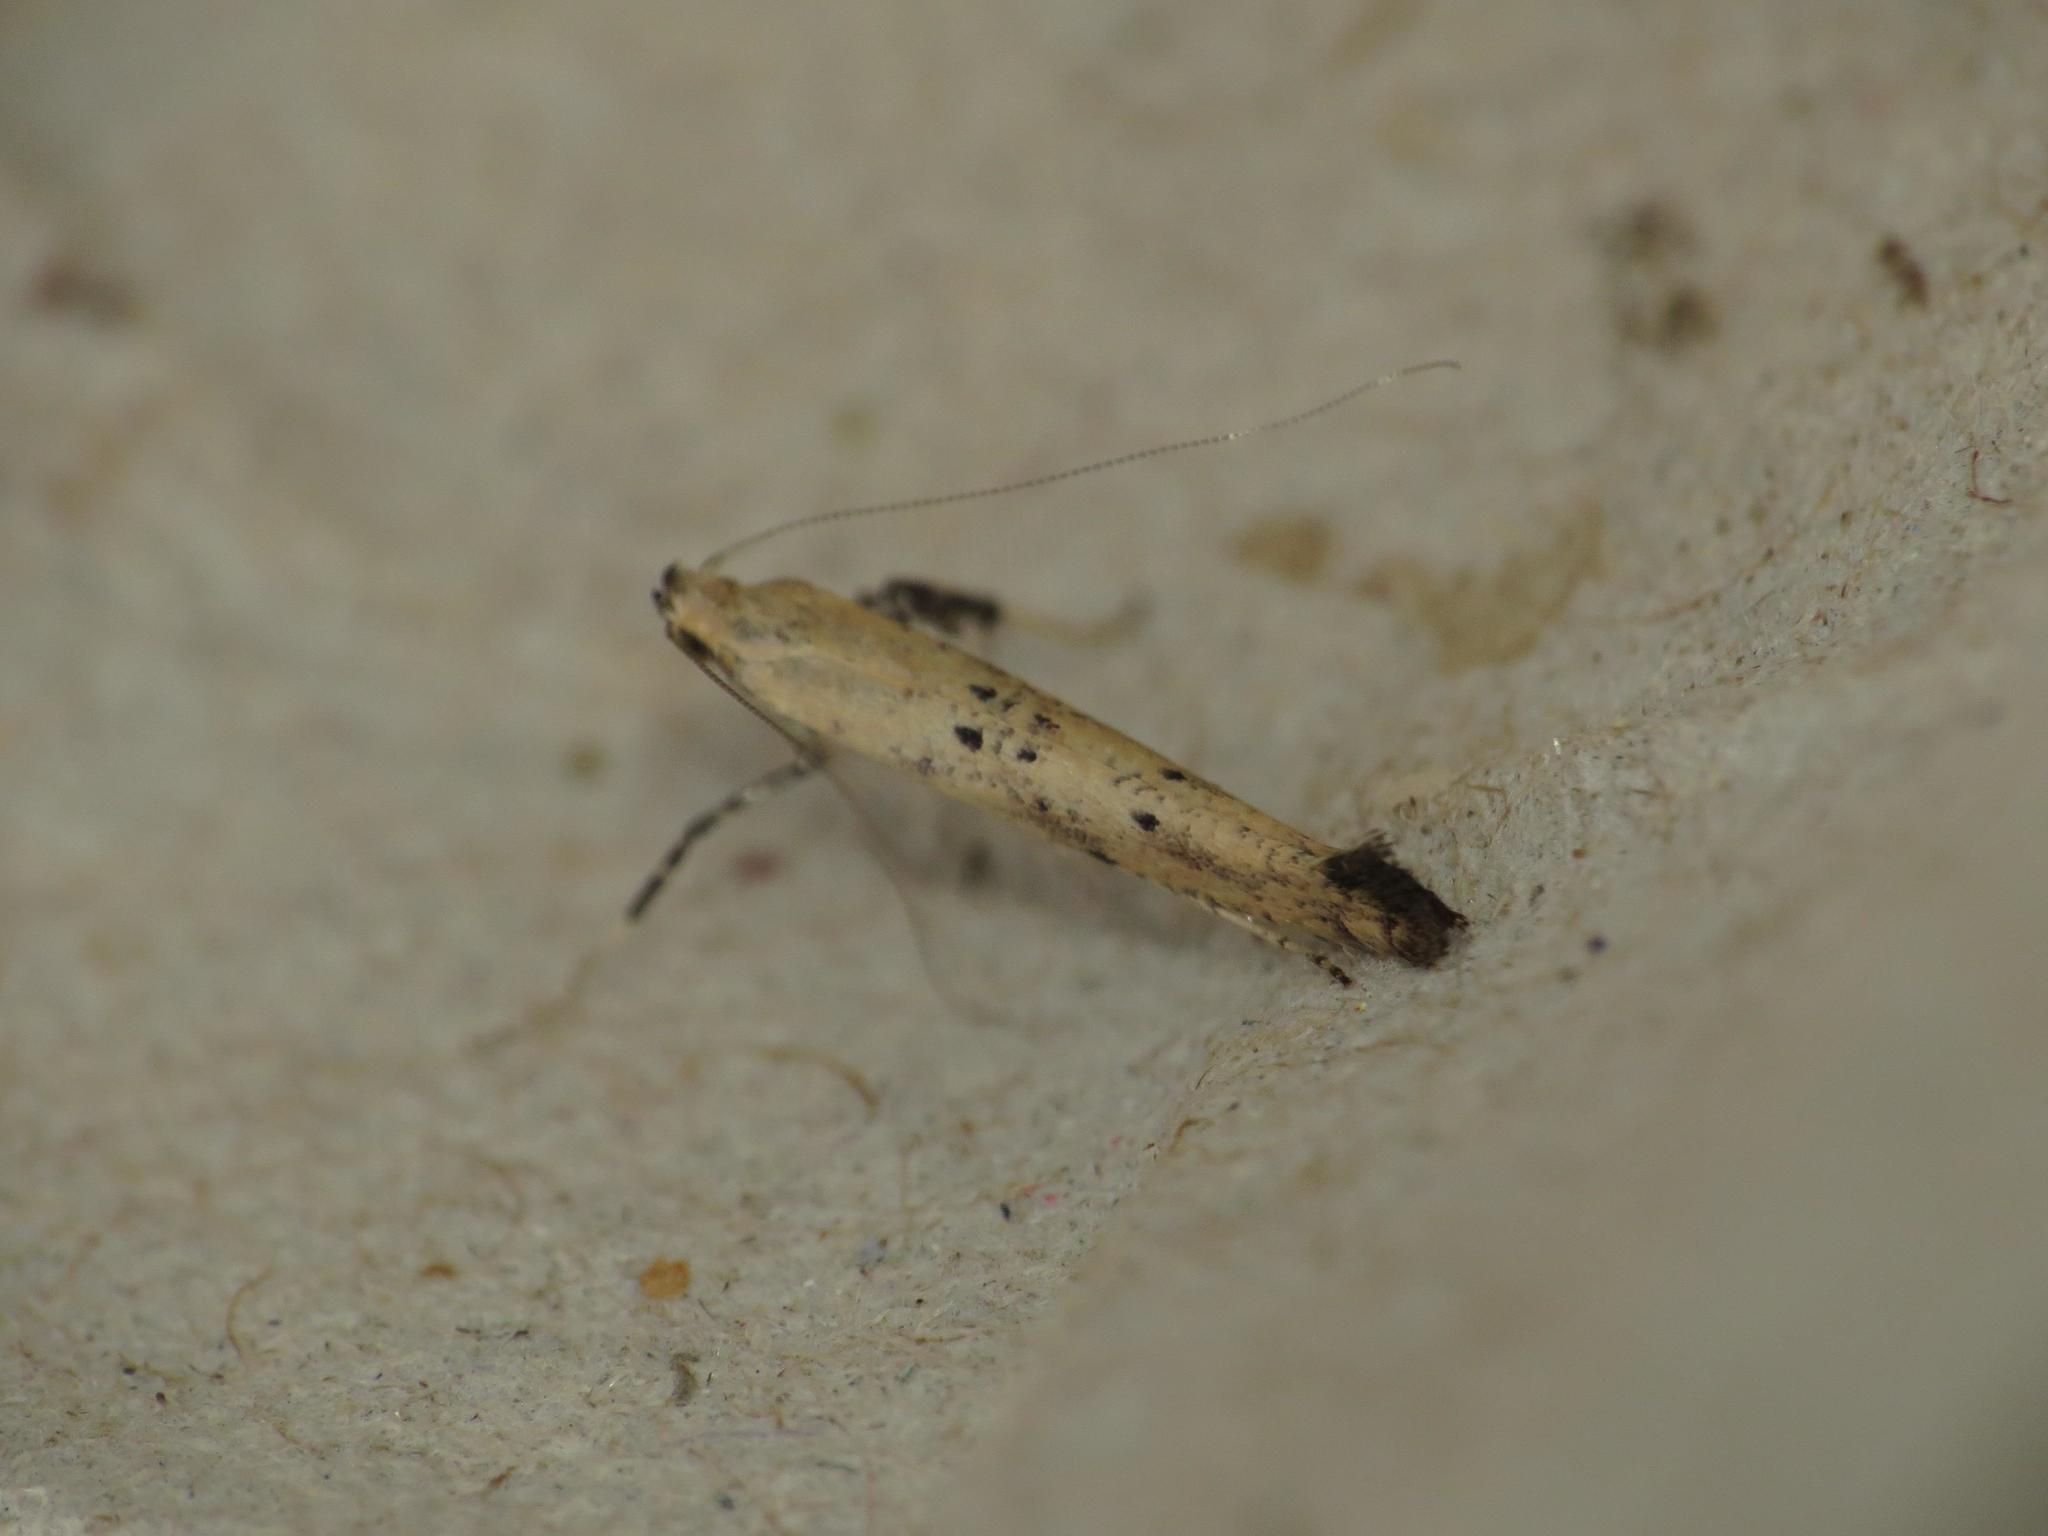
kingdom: Animalia
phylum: Arthropoda
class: Insecta
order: Lepidoptera
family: Gracillariidae
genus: Caloptilia
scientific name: Caloptilia populetorum
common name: Clouded slender
